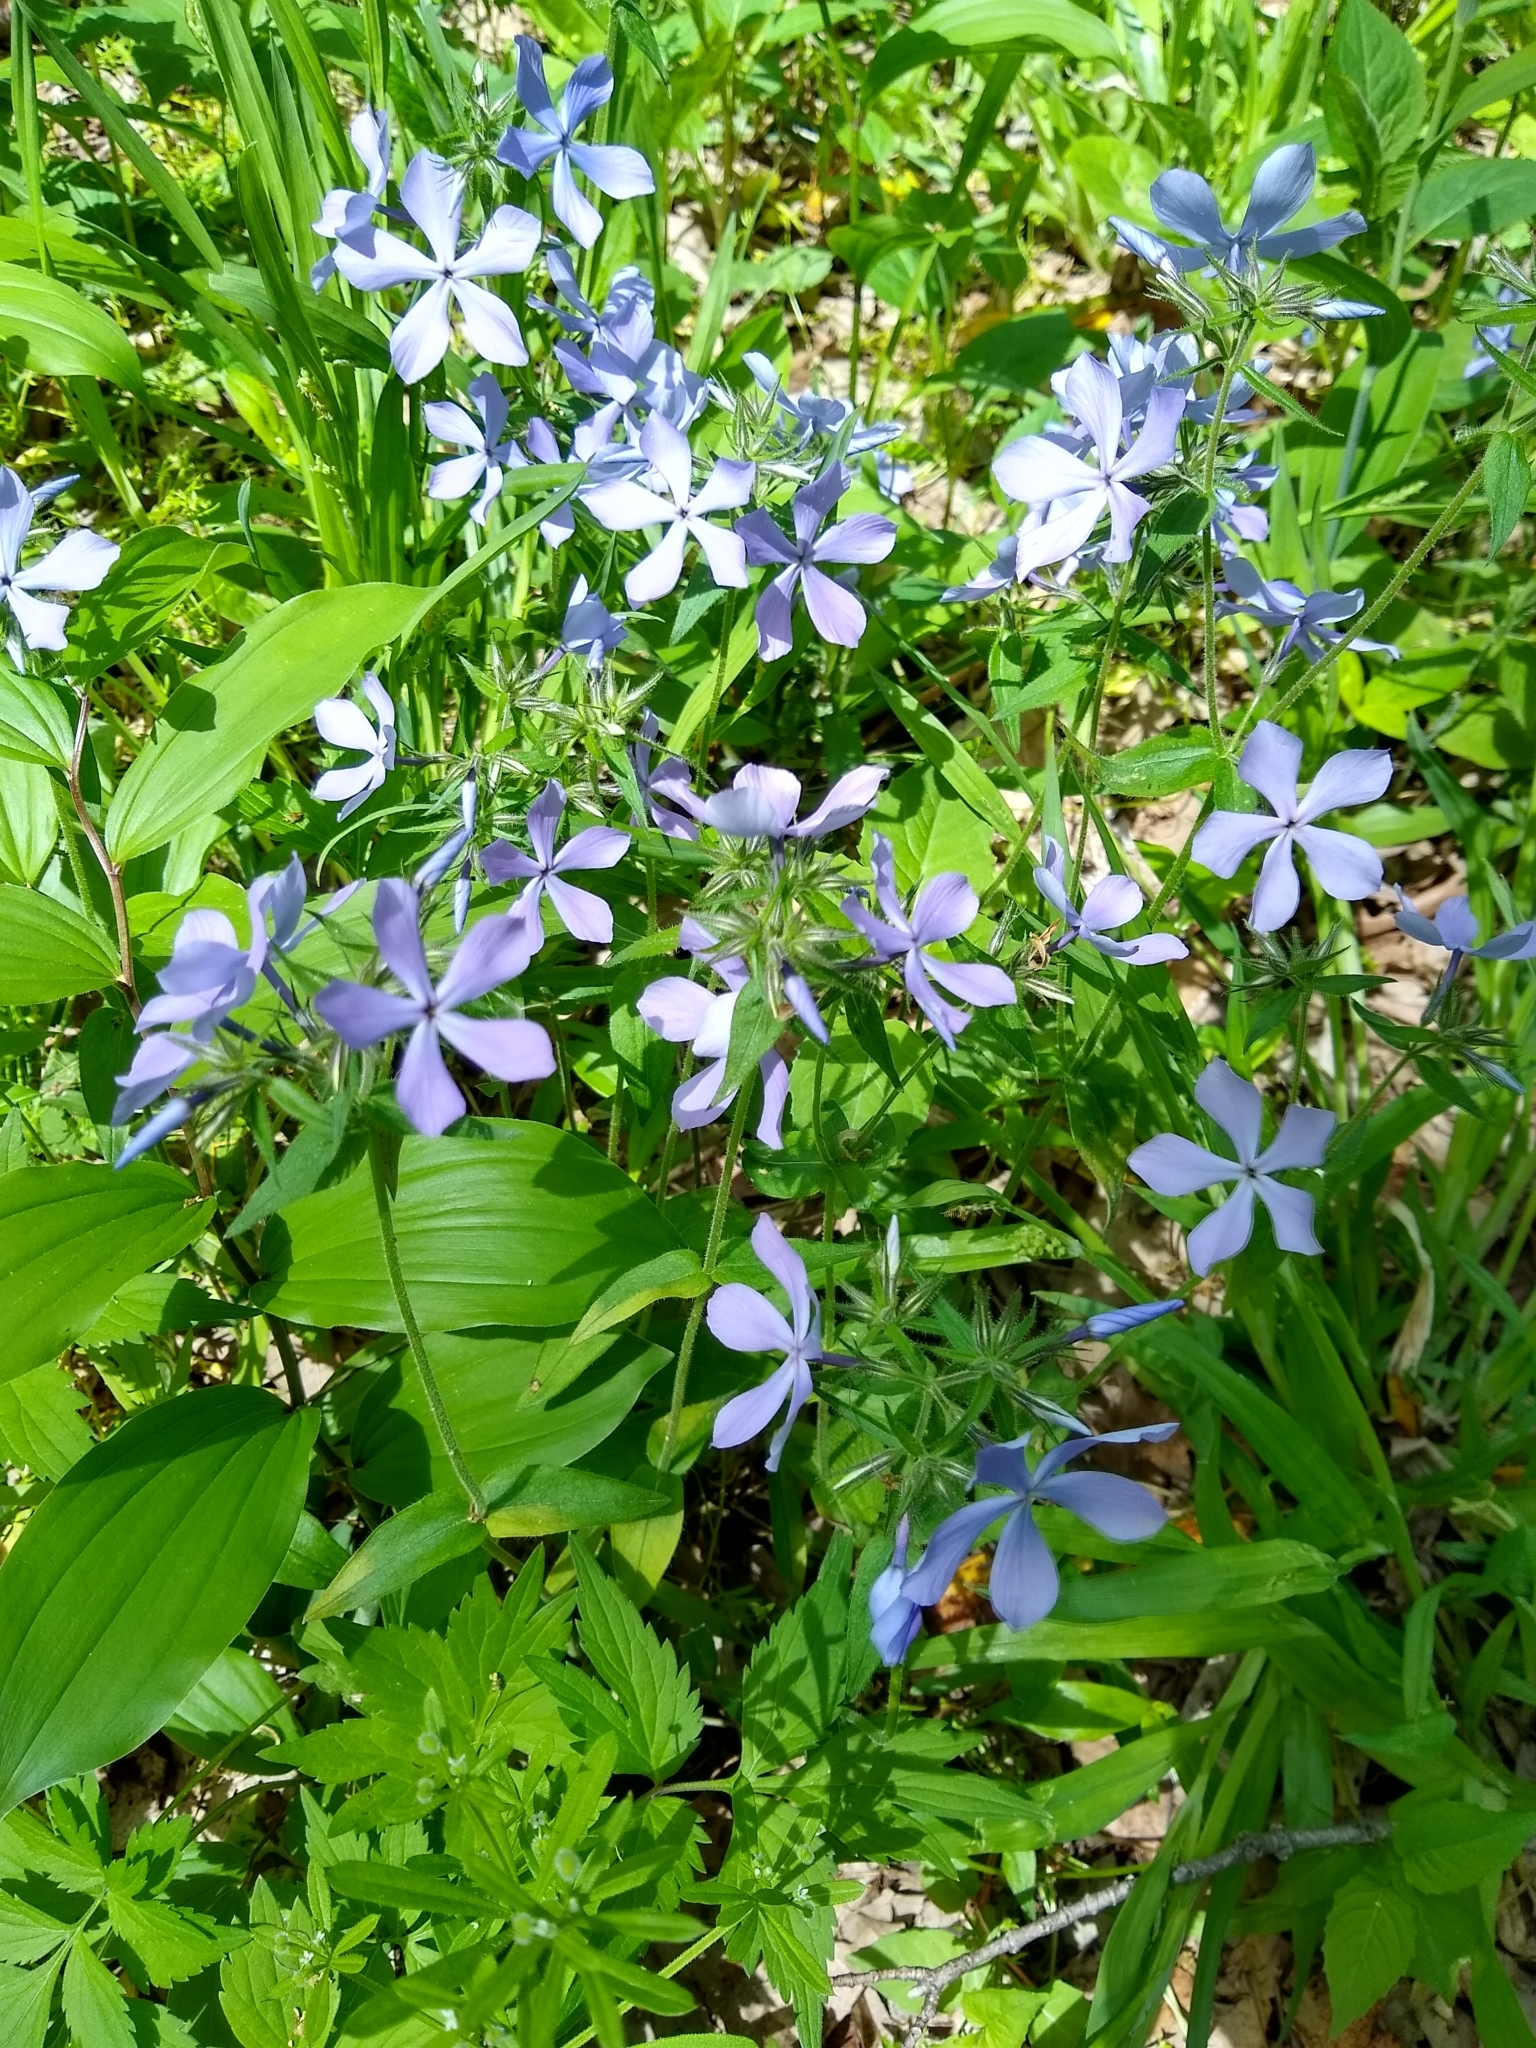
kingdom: Plantae
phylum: Tracheophyta
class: Magnoliopsida
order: Ericales
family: Polemoniaceae
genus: Phlox
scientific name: Phlox divaricata
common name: Blue phlox
